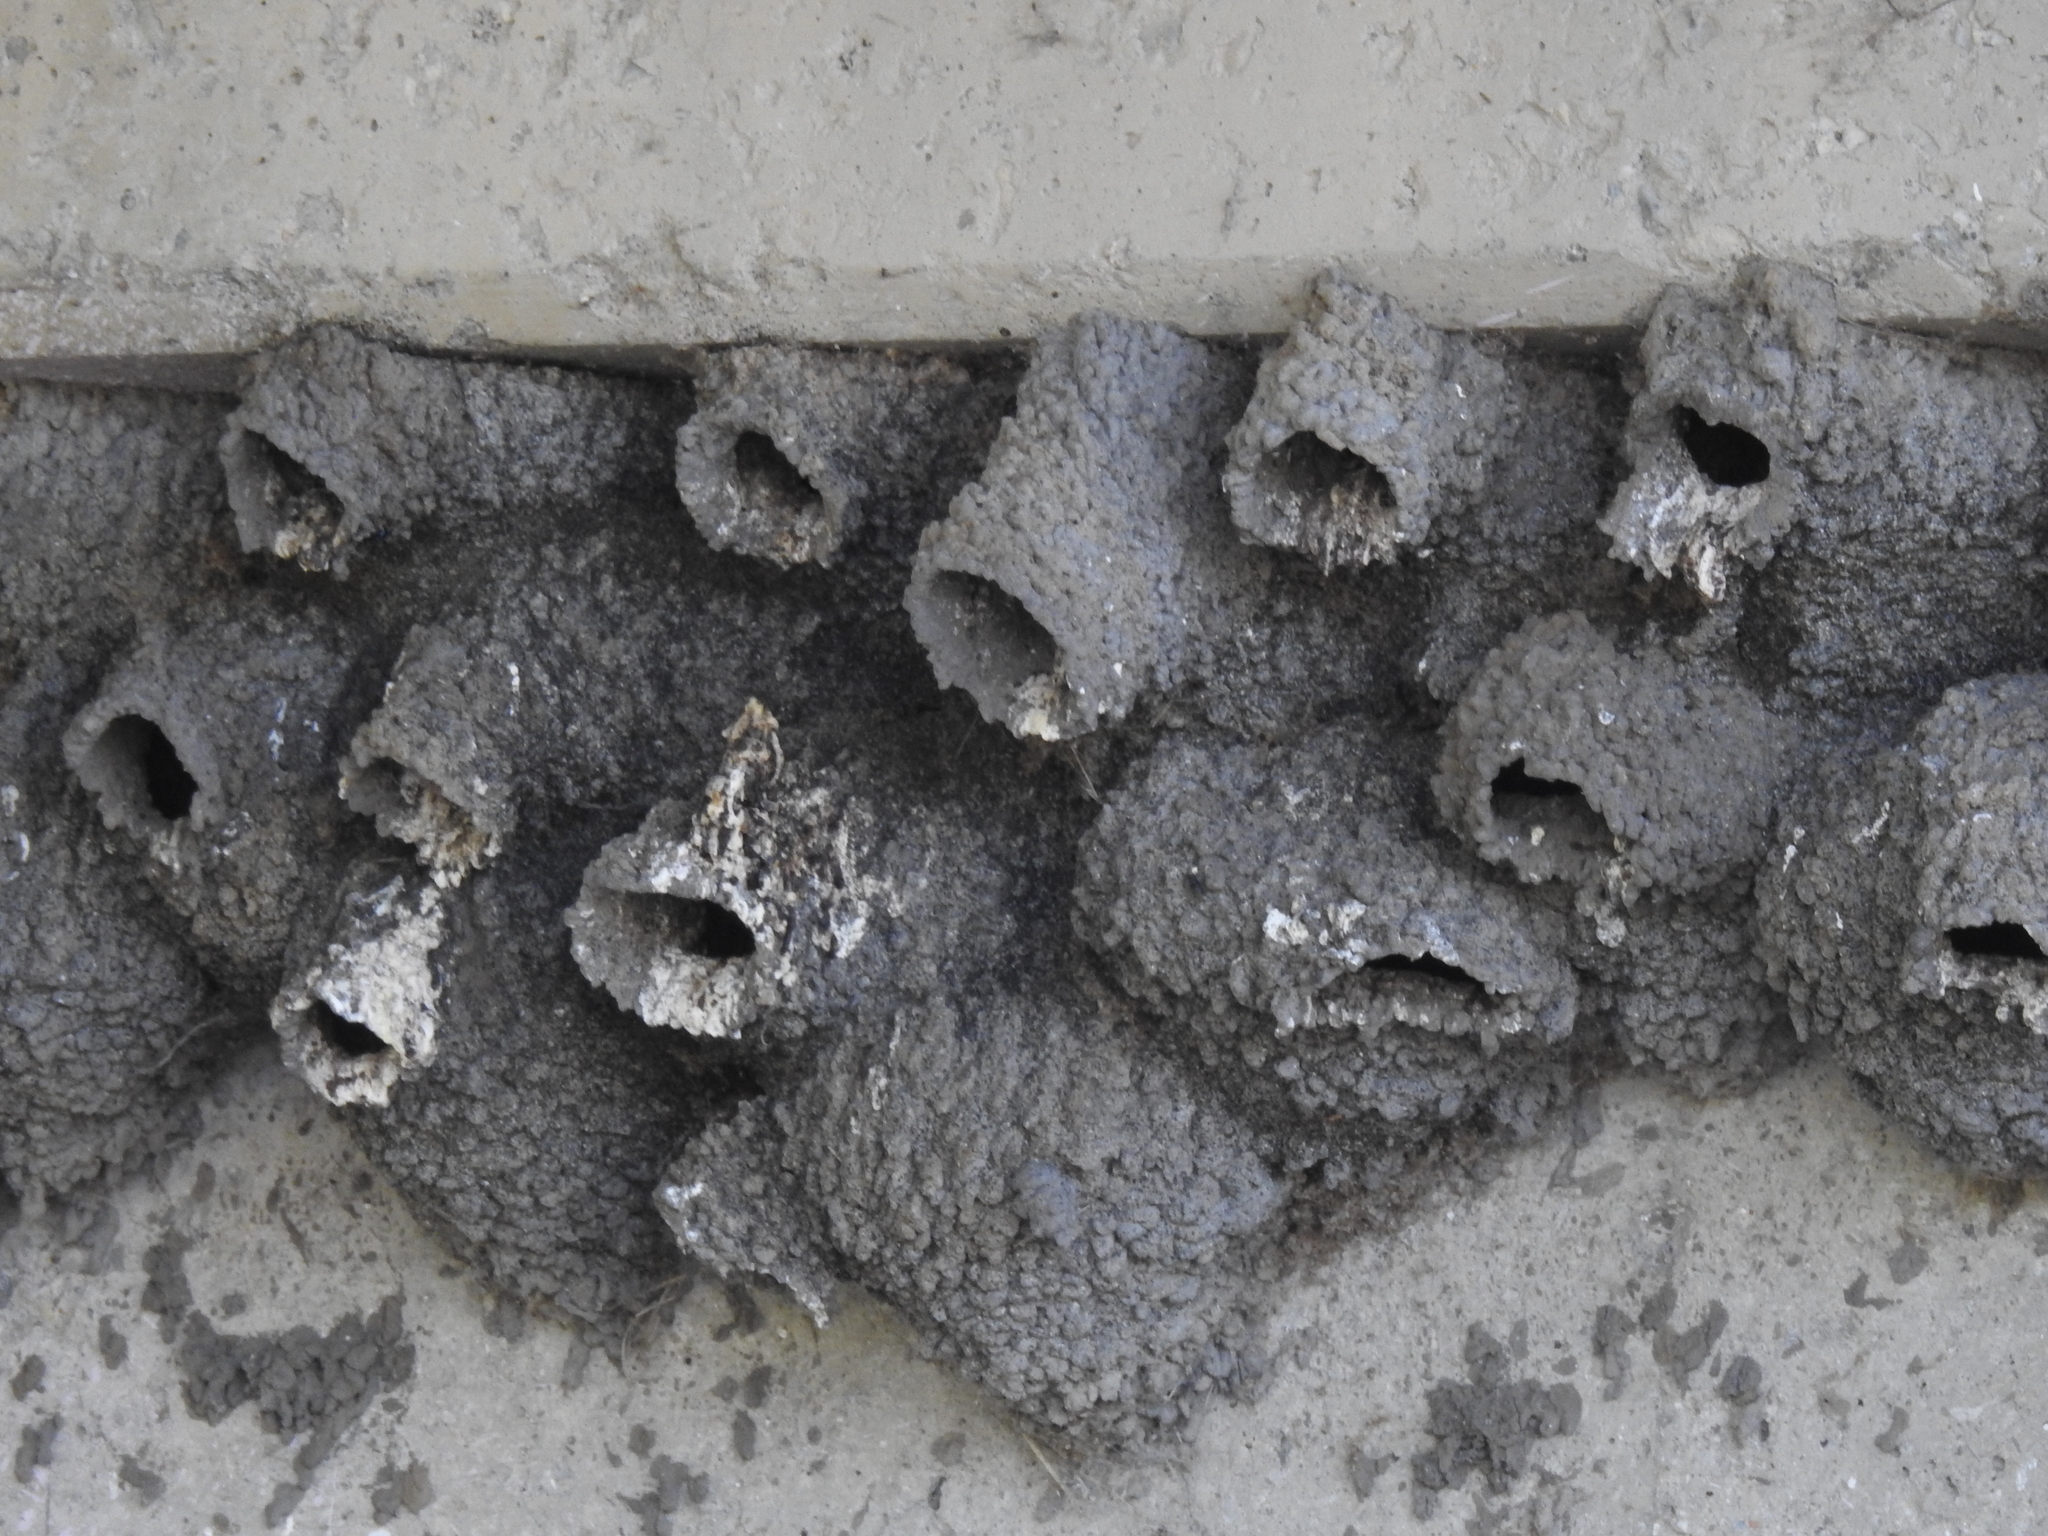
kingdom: Animalia
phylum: Chordata
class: Aves
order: Passeriformes
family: Hirundinidae
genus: Petrochelidon
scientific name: Petrochelidon pyrrhonota
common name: American cliff swallow
